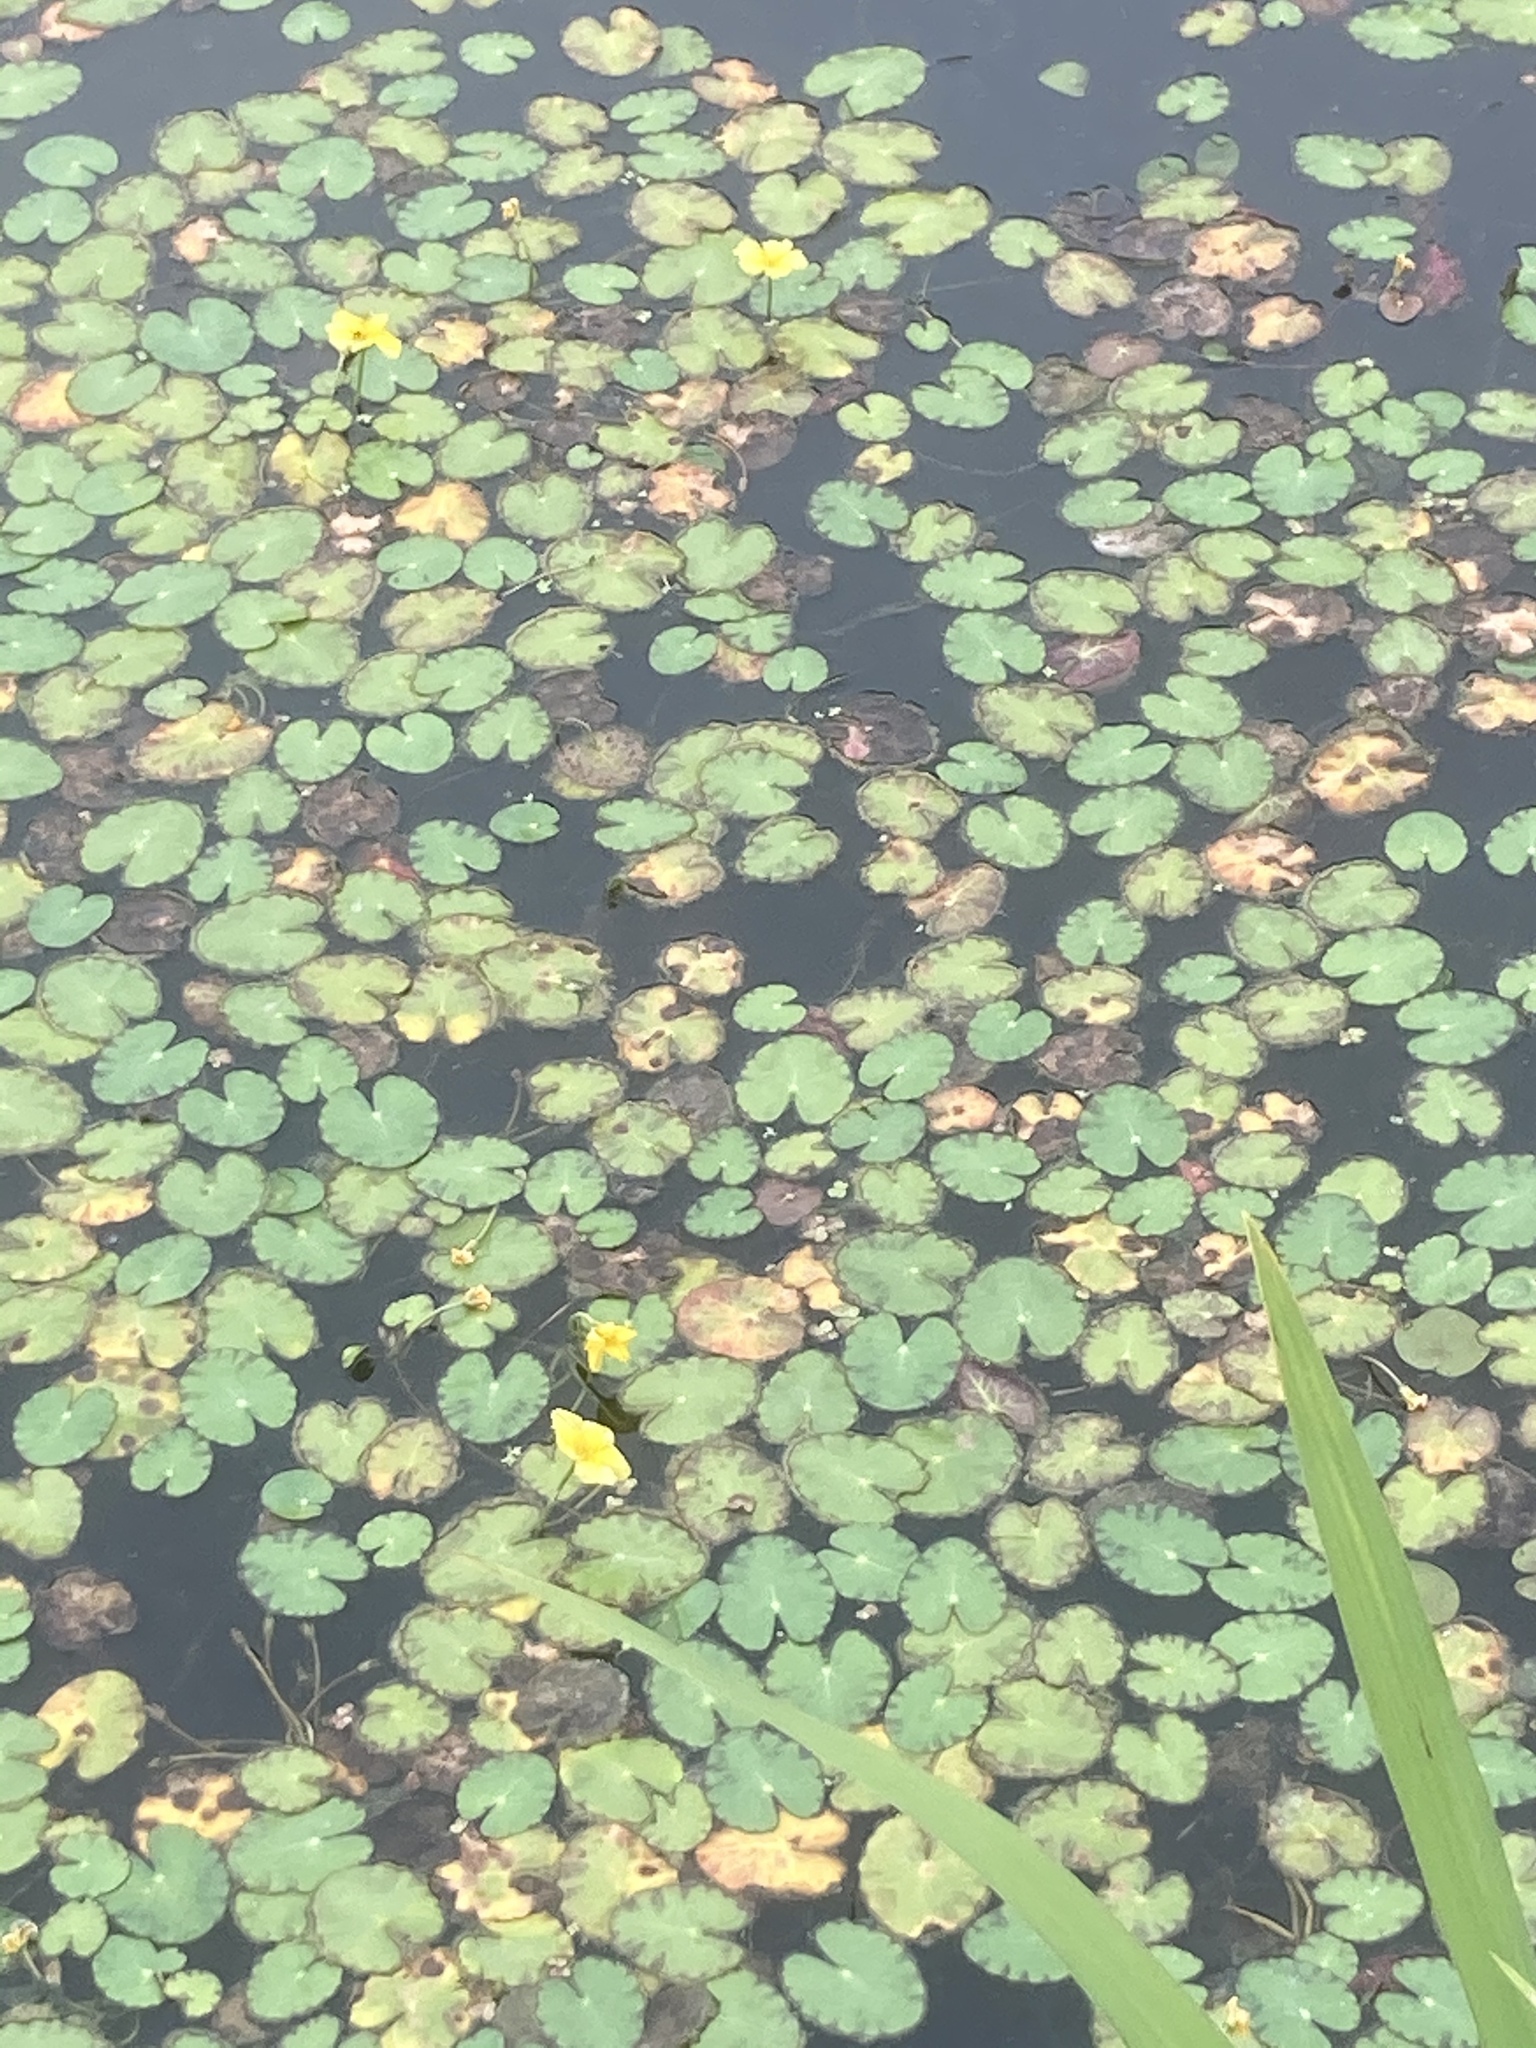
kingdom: Plantae
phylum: Tracheophyta
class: Magnoliopsida
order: Asterales
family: Menyanthaceae
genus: Nymphoides
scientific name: Nymphoides peltata
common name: Fringed water-lily
